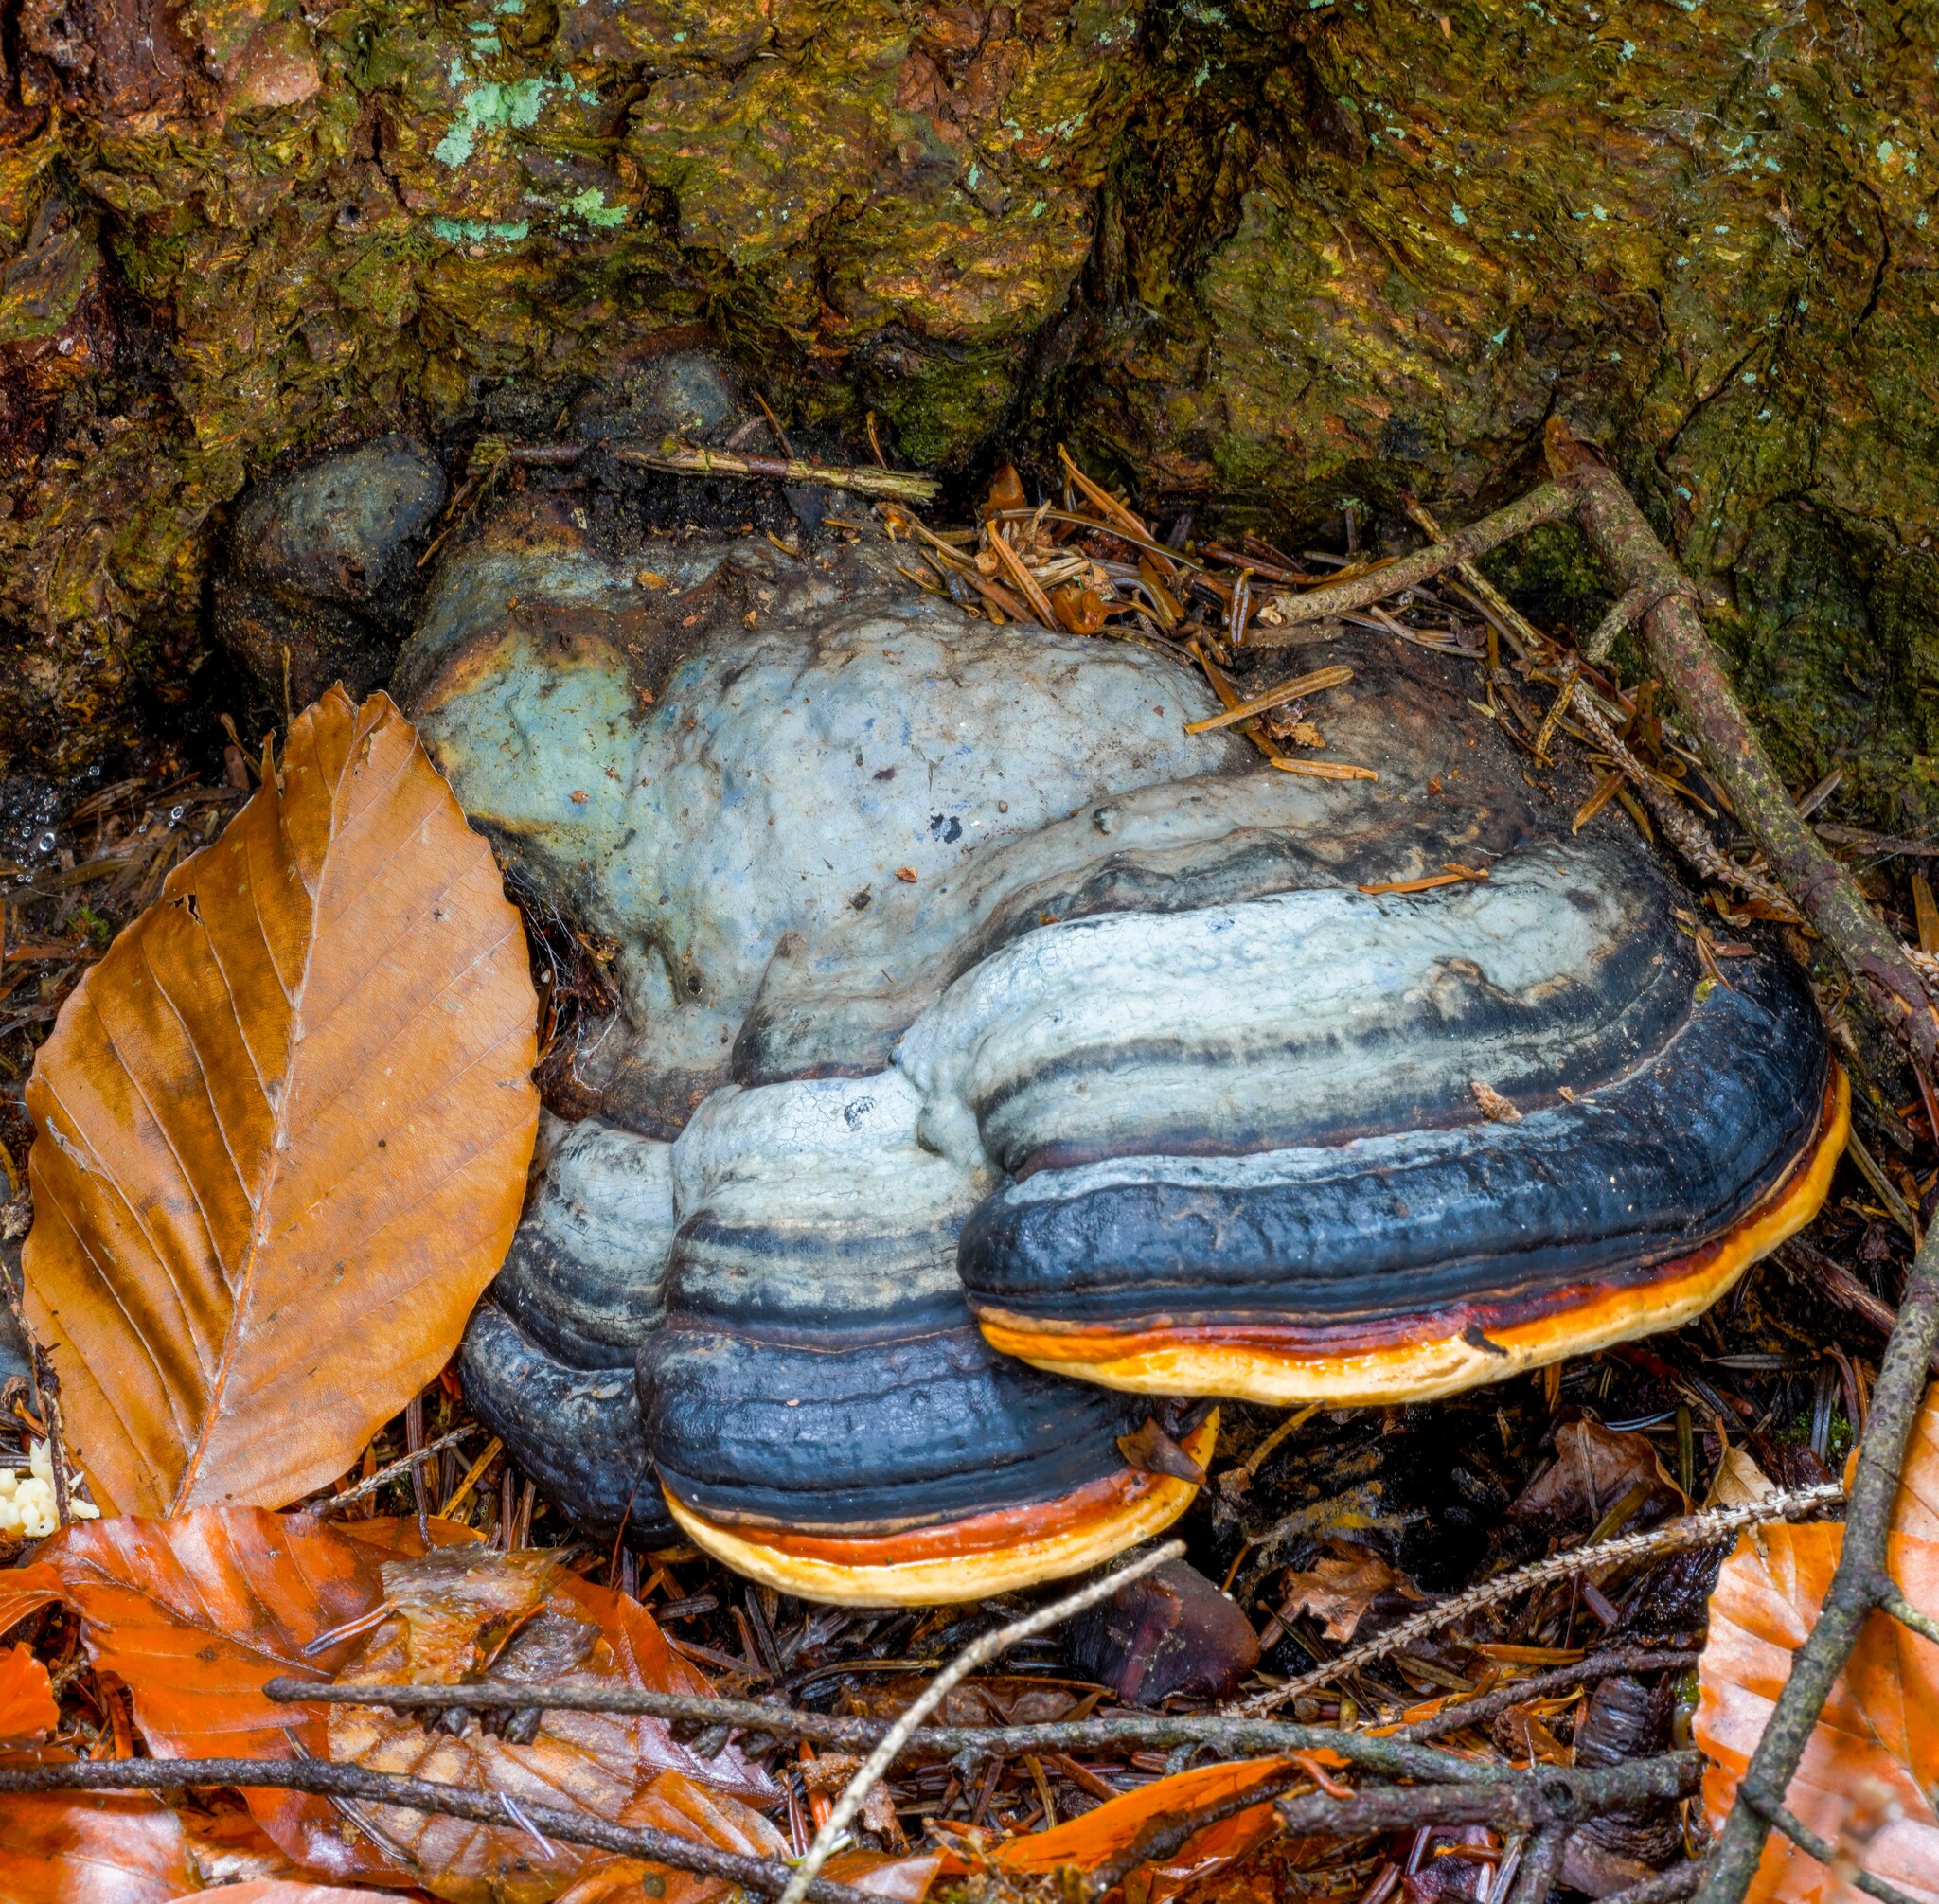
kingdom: Fungi
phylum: Basidiomycota
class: Agaricomycetes
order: Polyporales
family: Fomitopsidaceae
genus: Fomitopsis
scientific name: Fomitopsis pinicola
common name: Red-belted bracket
